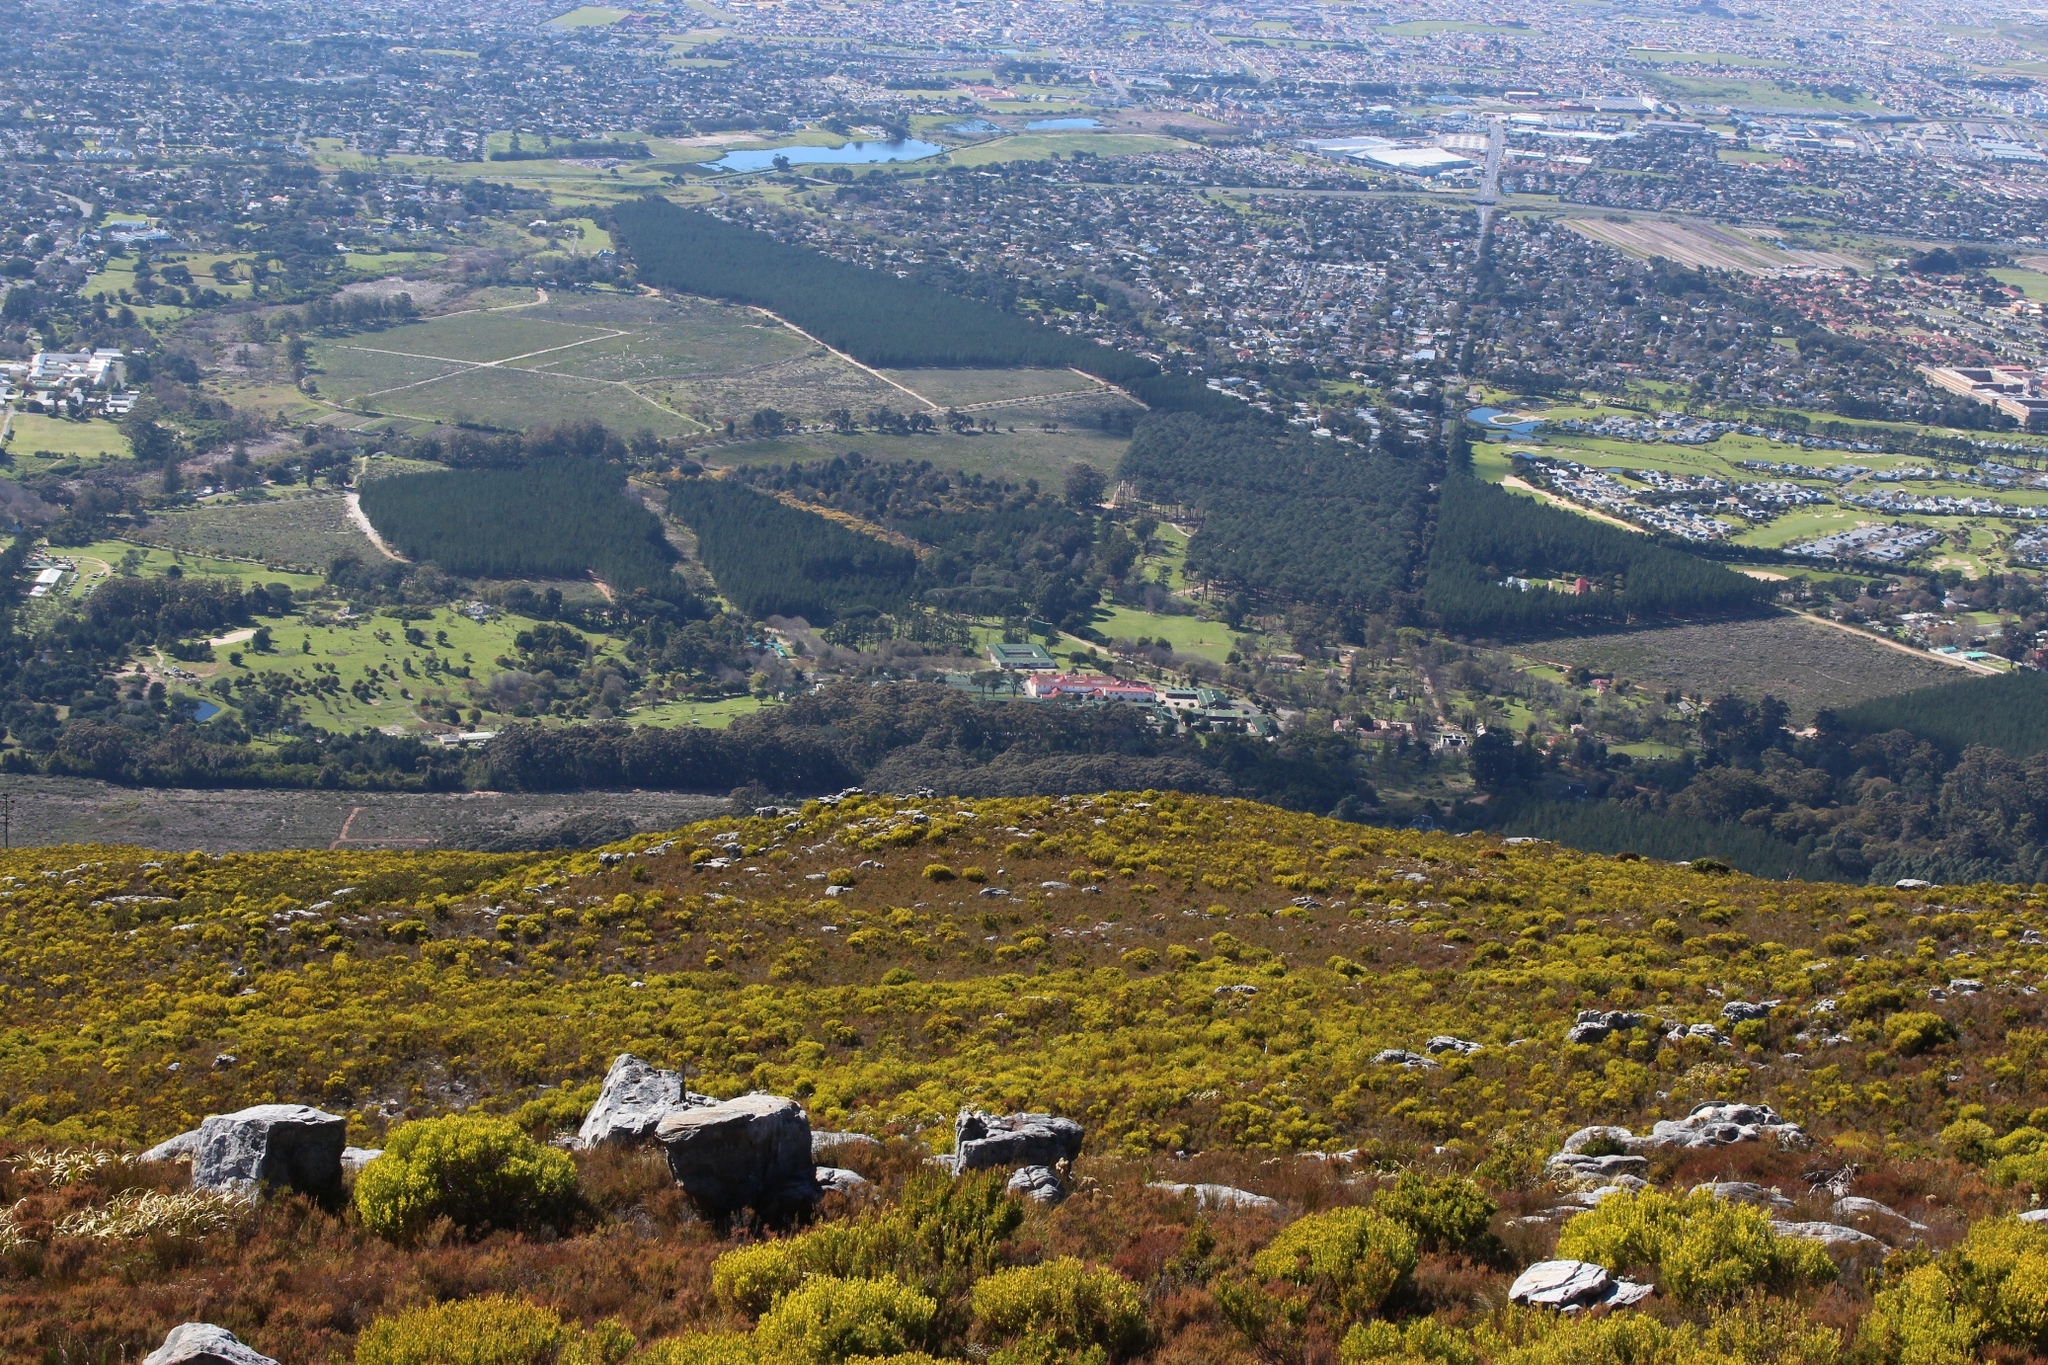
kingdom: Plantae
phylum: Tracheophyta
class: Magnoliopsida
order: Proteales
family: Proteaceae
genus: Leucadendron
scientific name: Leucadendron xanthoconus
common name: Sickle-leaf conebush
